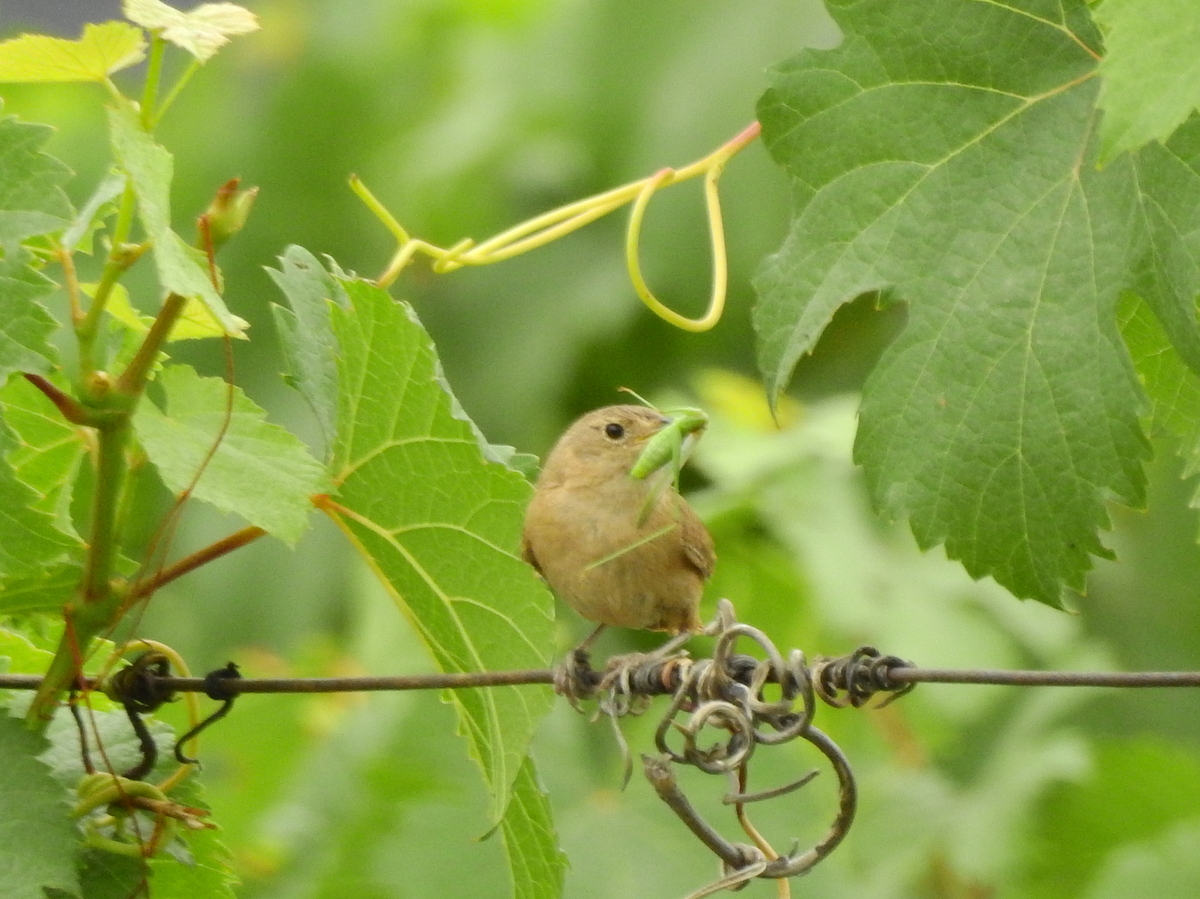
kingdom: Animalia
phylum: Chordata
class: Aves
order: Passeriformes
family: Troglodytidae
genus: Troglodytes
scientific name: Troglodytes aedon
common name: House wren
